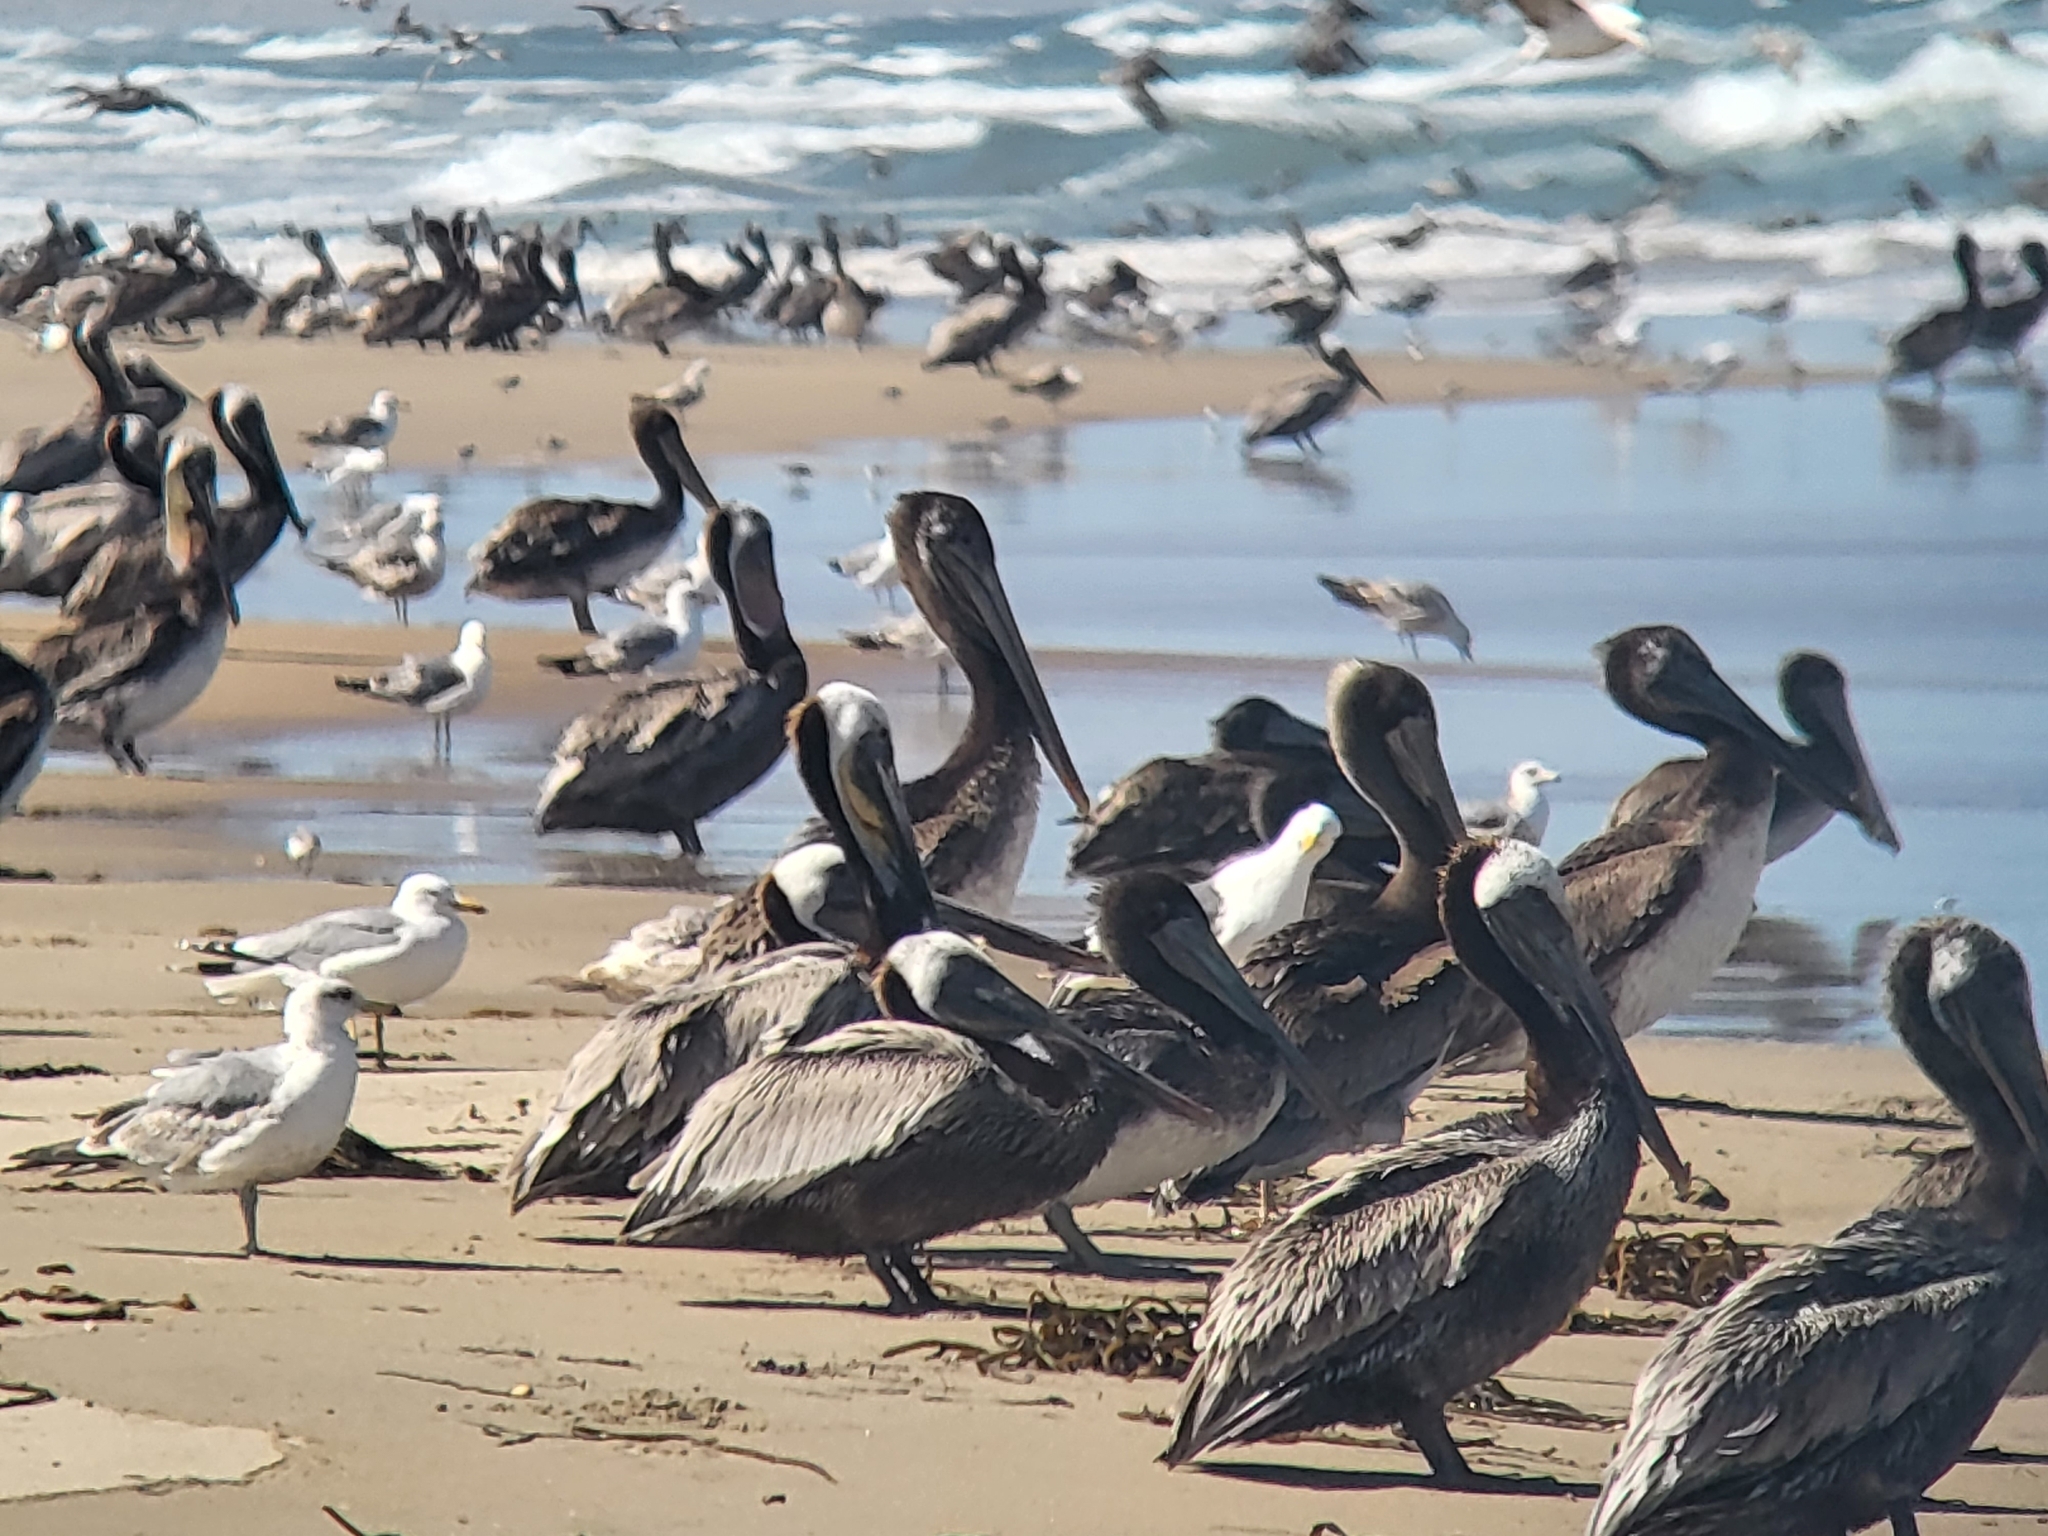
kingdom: Animalia
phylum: Chordata
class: Aves
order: Pelecaniformes
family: Pelecanidae
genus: Pelecanus
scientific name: Pelecanus occidentalis
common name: Brown pelican
